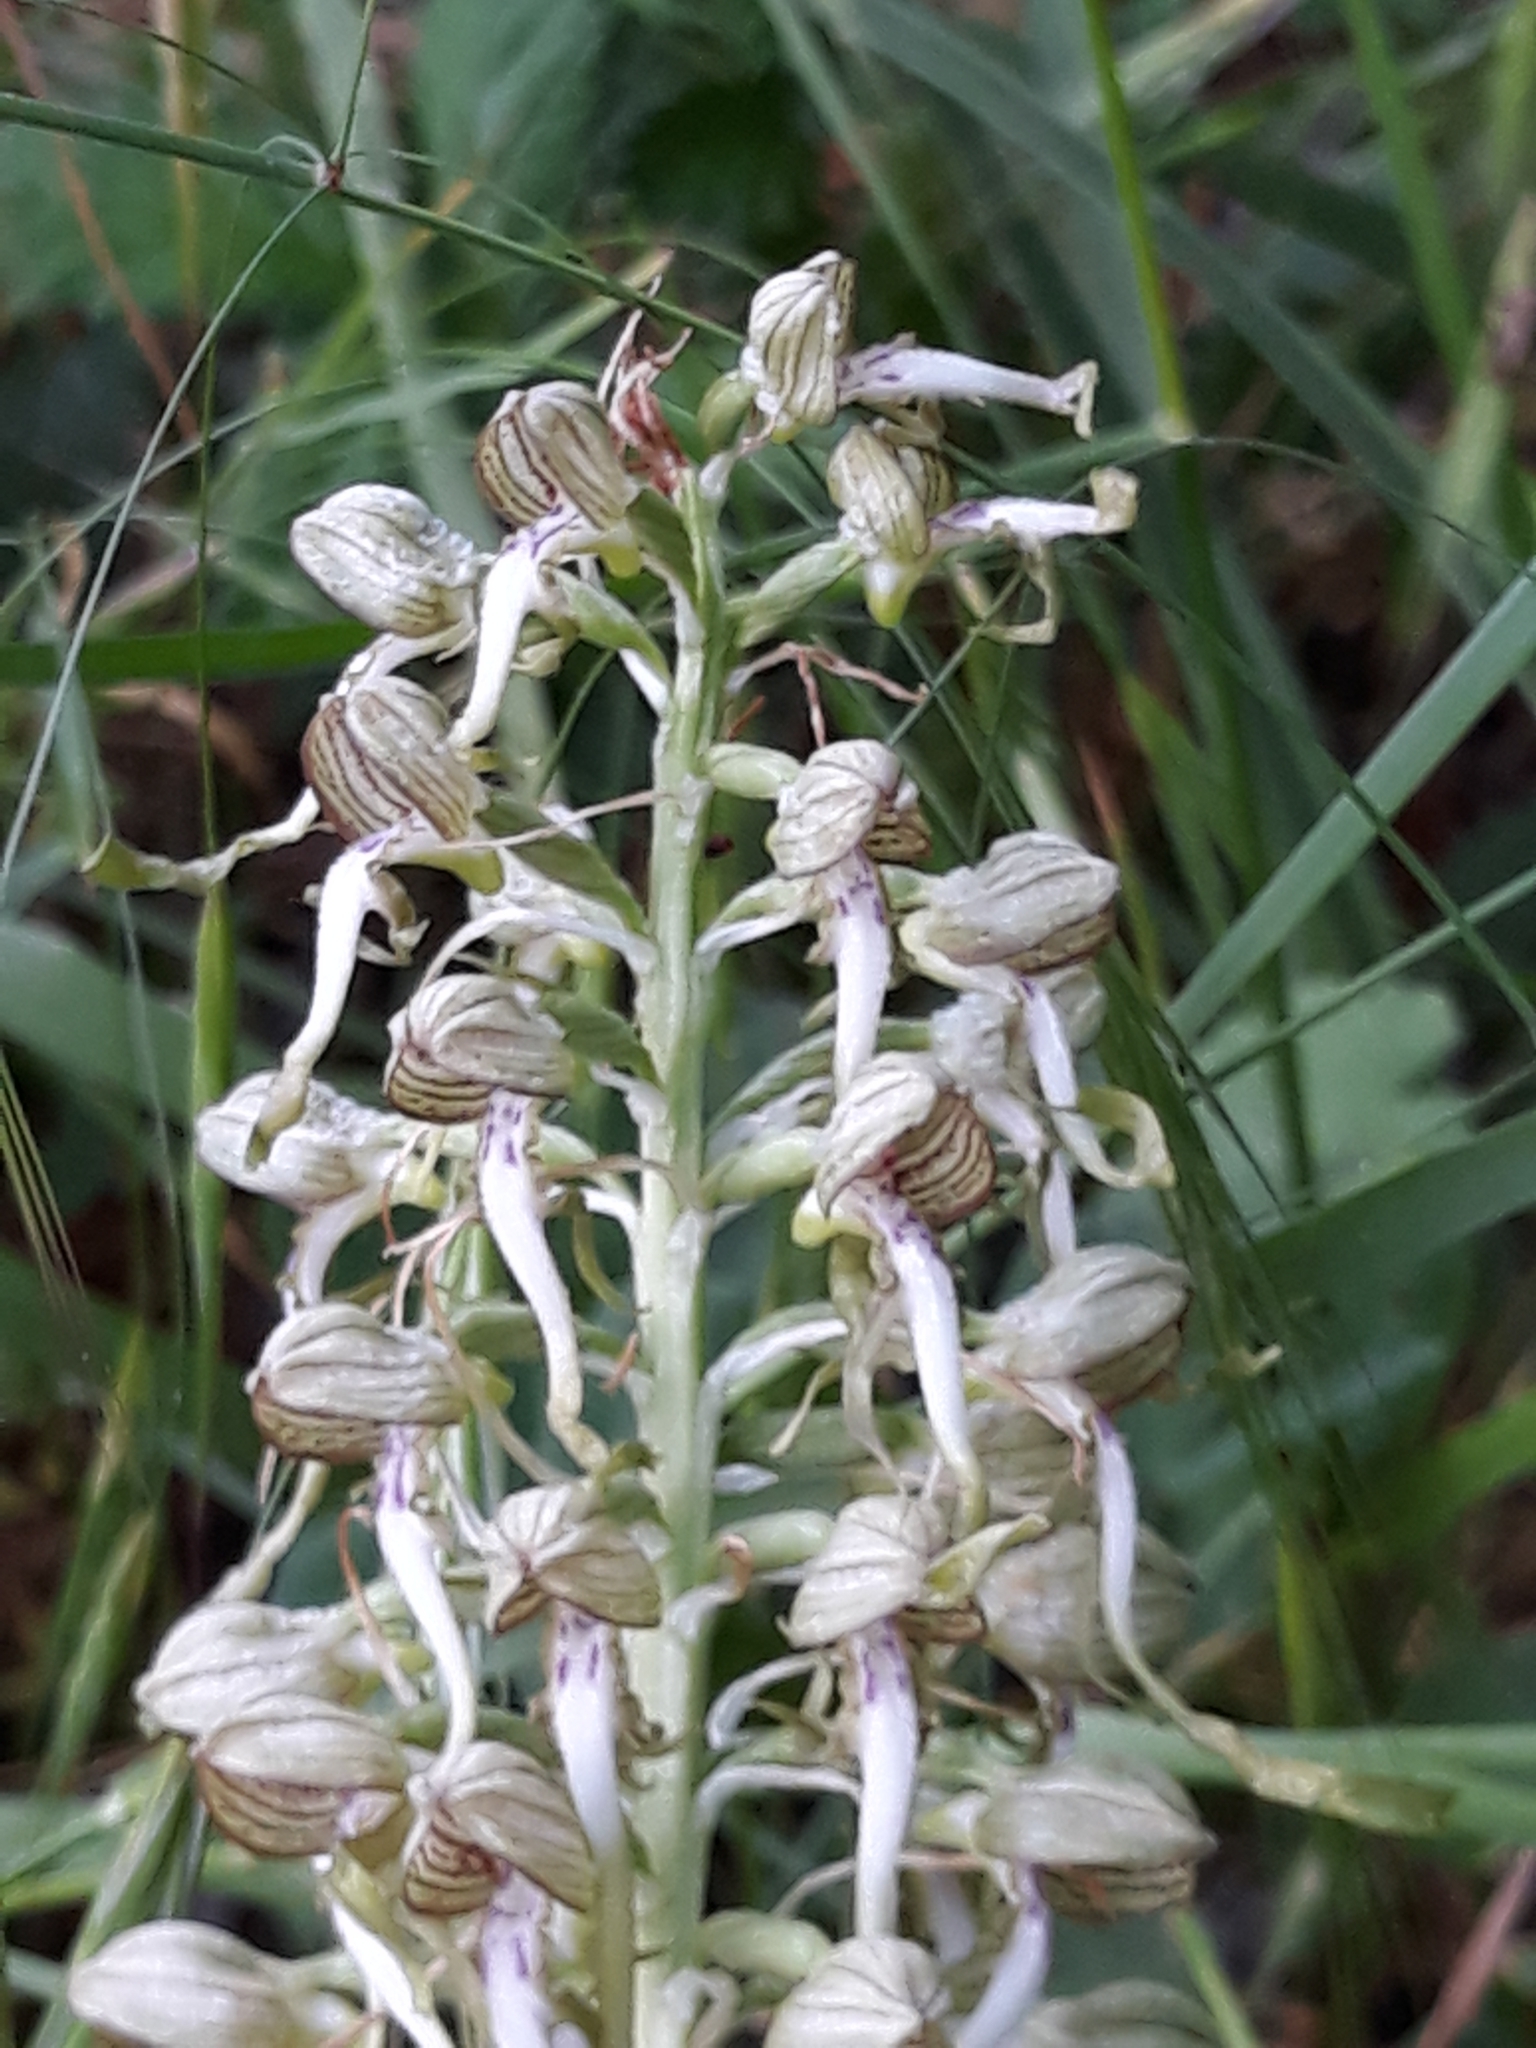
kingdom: Plantae
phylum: Tracheophyta
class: Liliopsida
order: Asparagales
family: Orchidaceae
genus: Himantoglossum
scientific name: Himantoglossum hircinum
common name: Lizard orchid
